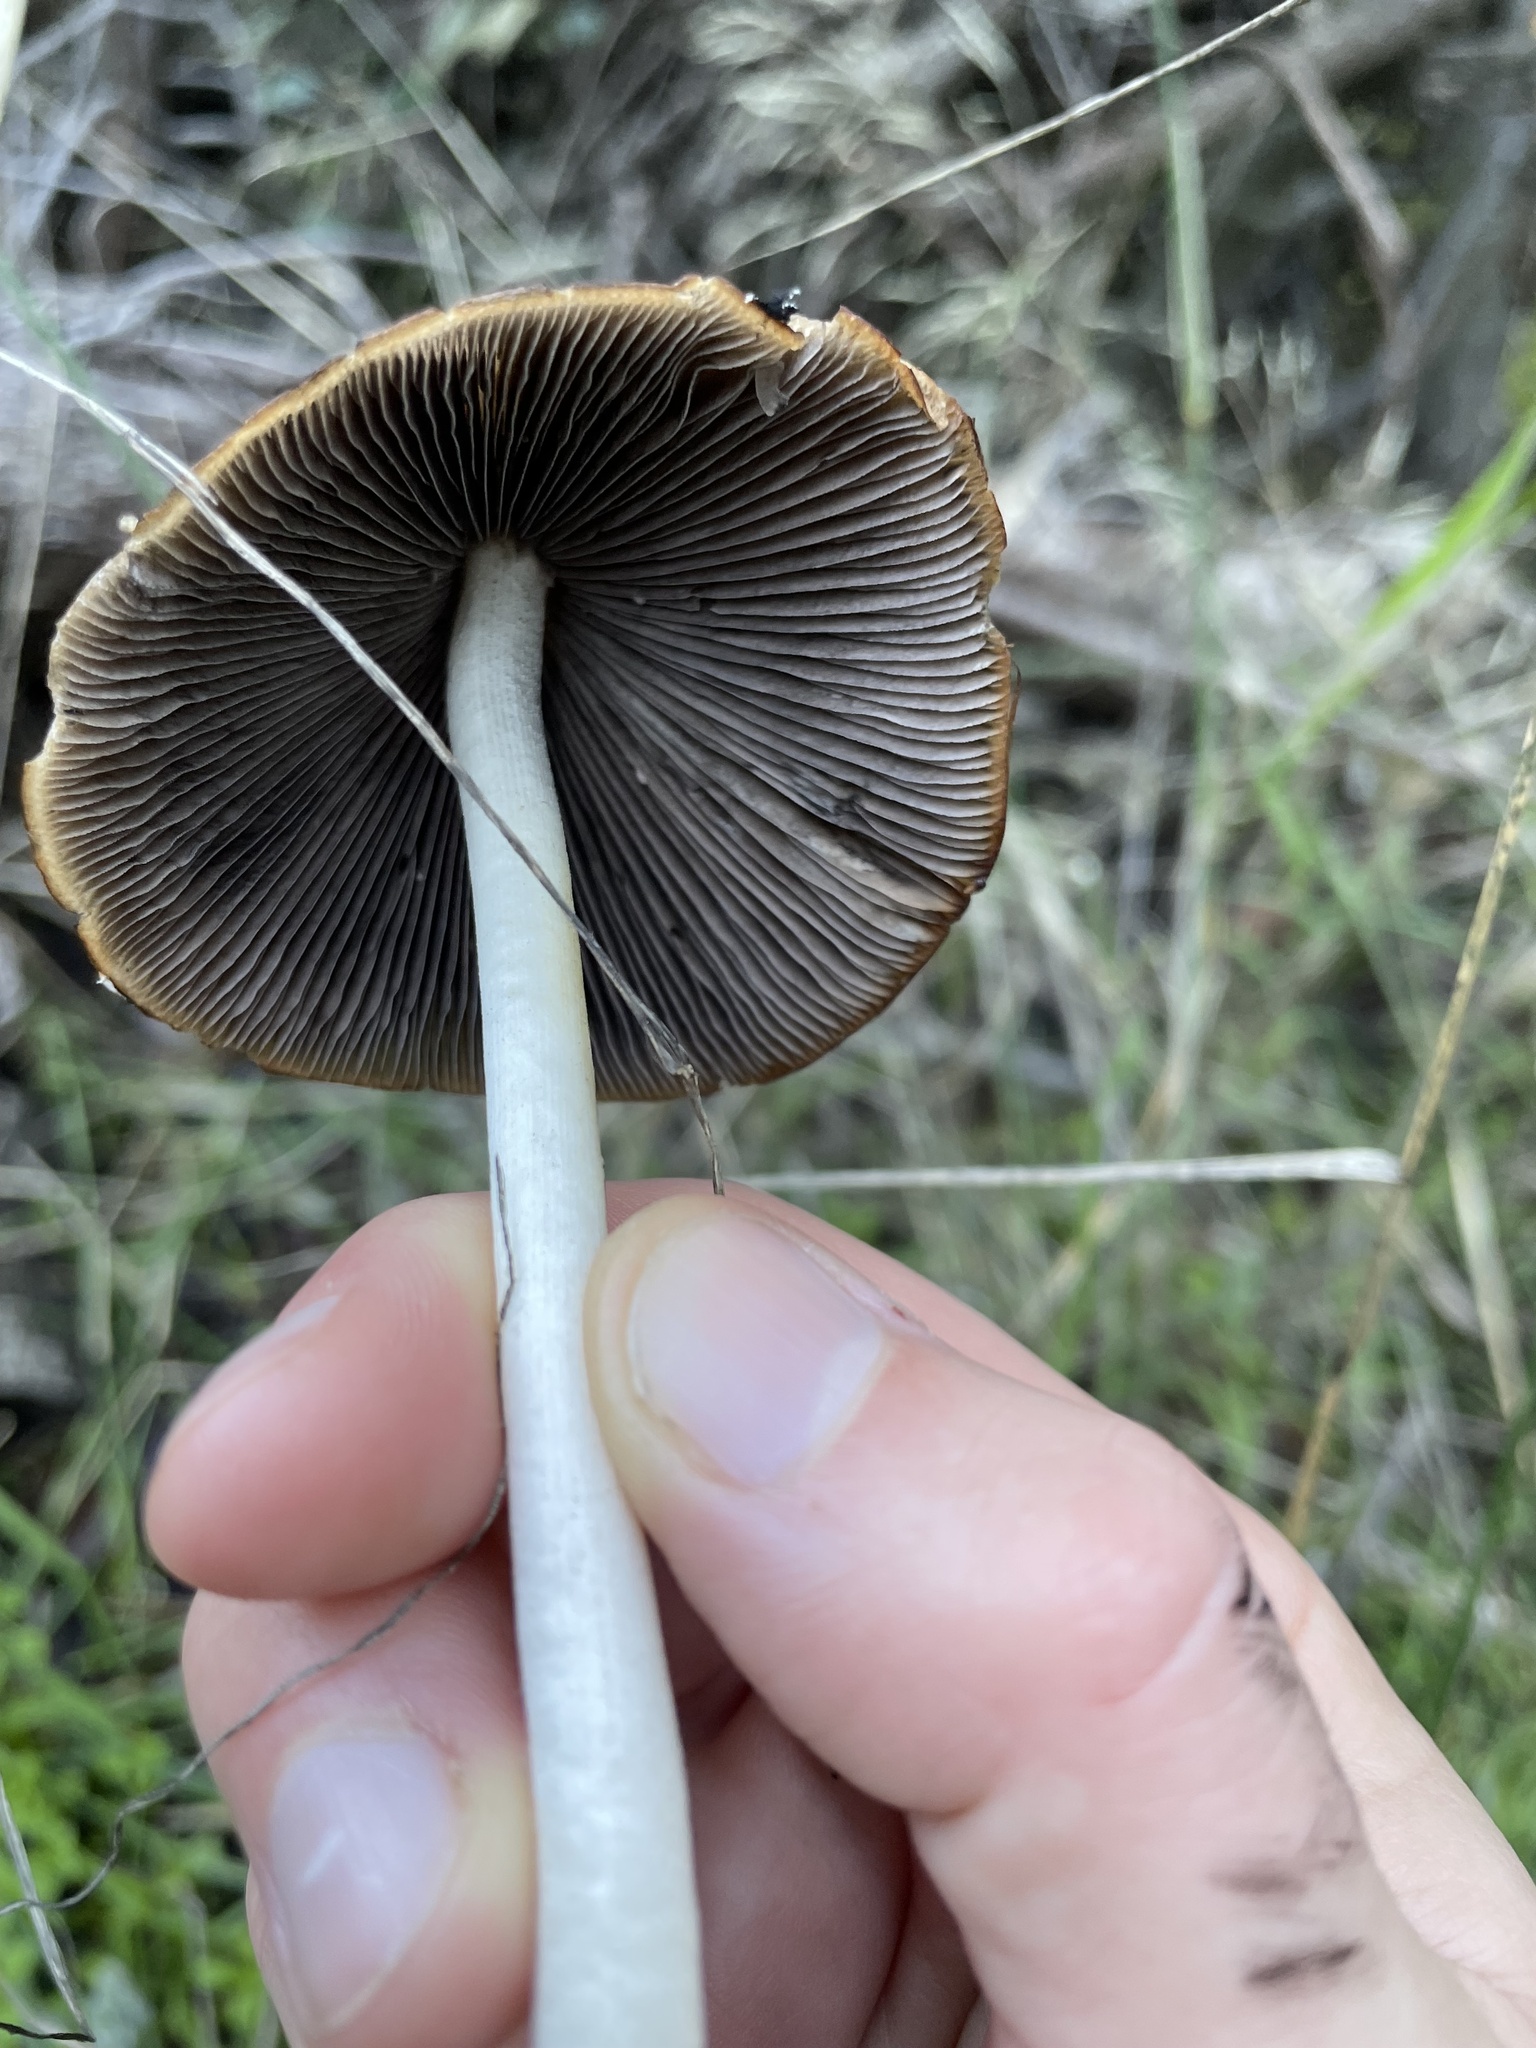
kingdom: Fungi
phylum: Basidiomycota
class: Agaricomycetes
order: Agaricales
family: Psathyrellaceae
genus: Psathyrella
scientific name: Psathyrella longipes
